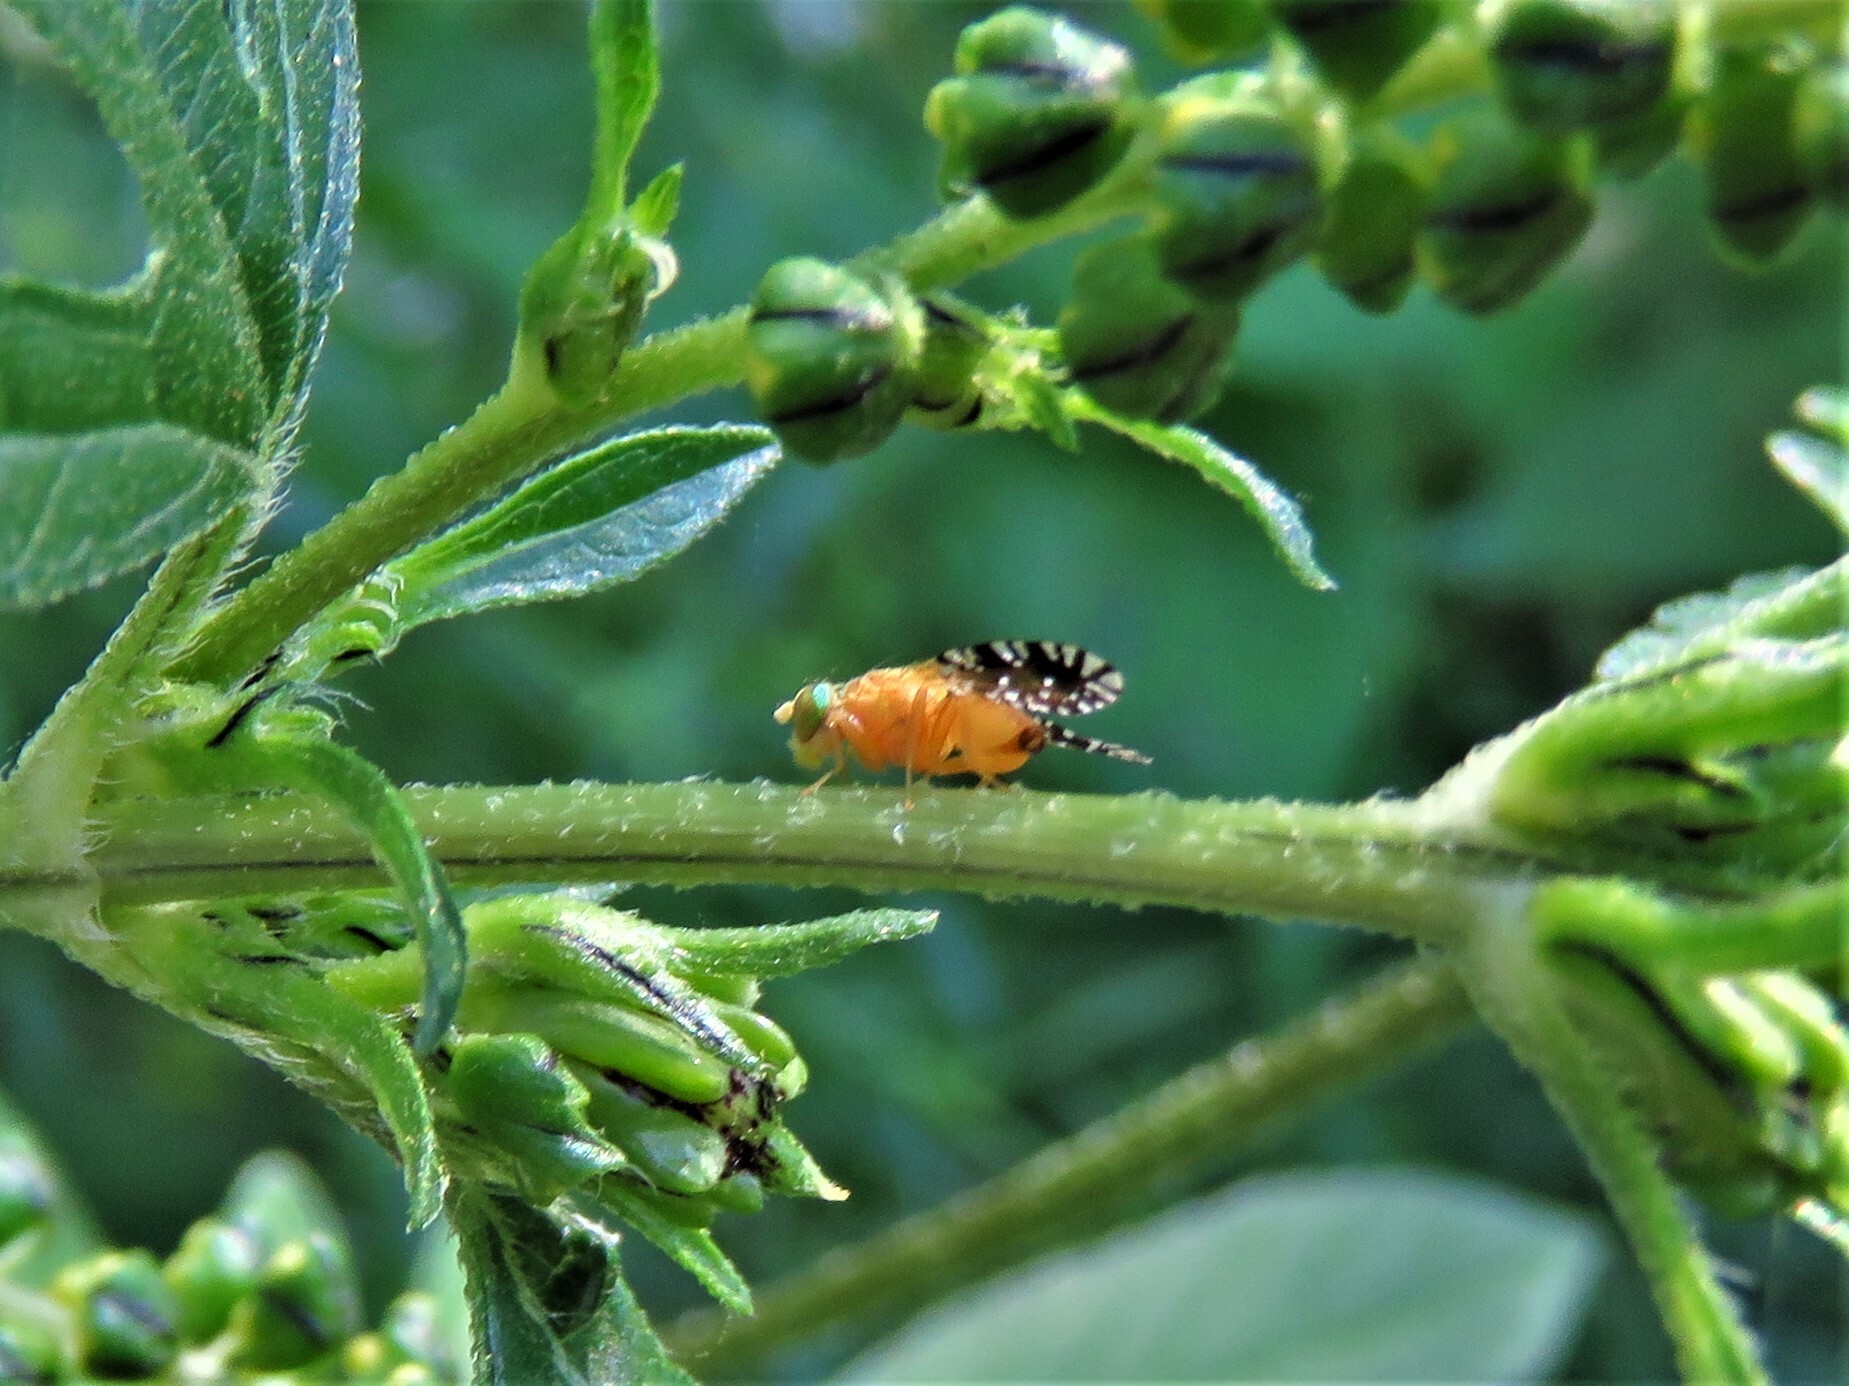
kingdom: Animalia
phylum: Arthropoda
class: Insecta
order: Diptera
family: Tephritidae
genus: Euaresta
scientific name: Euaresta festiva
